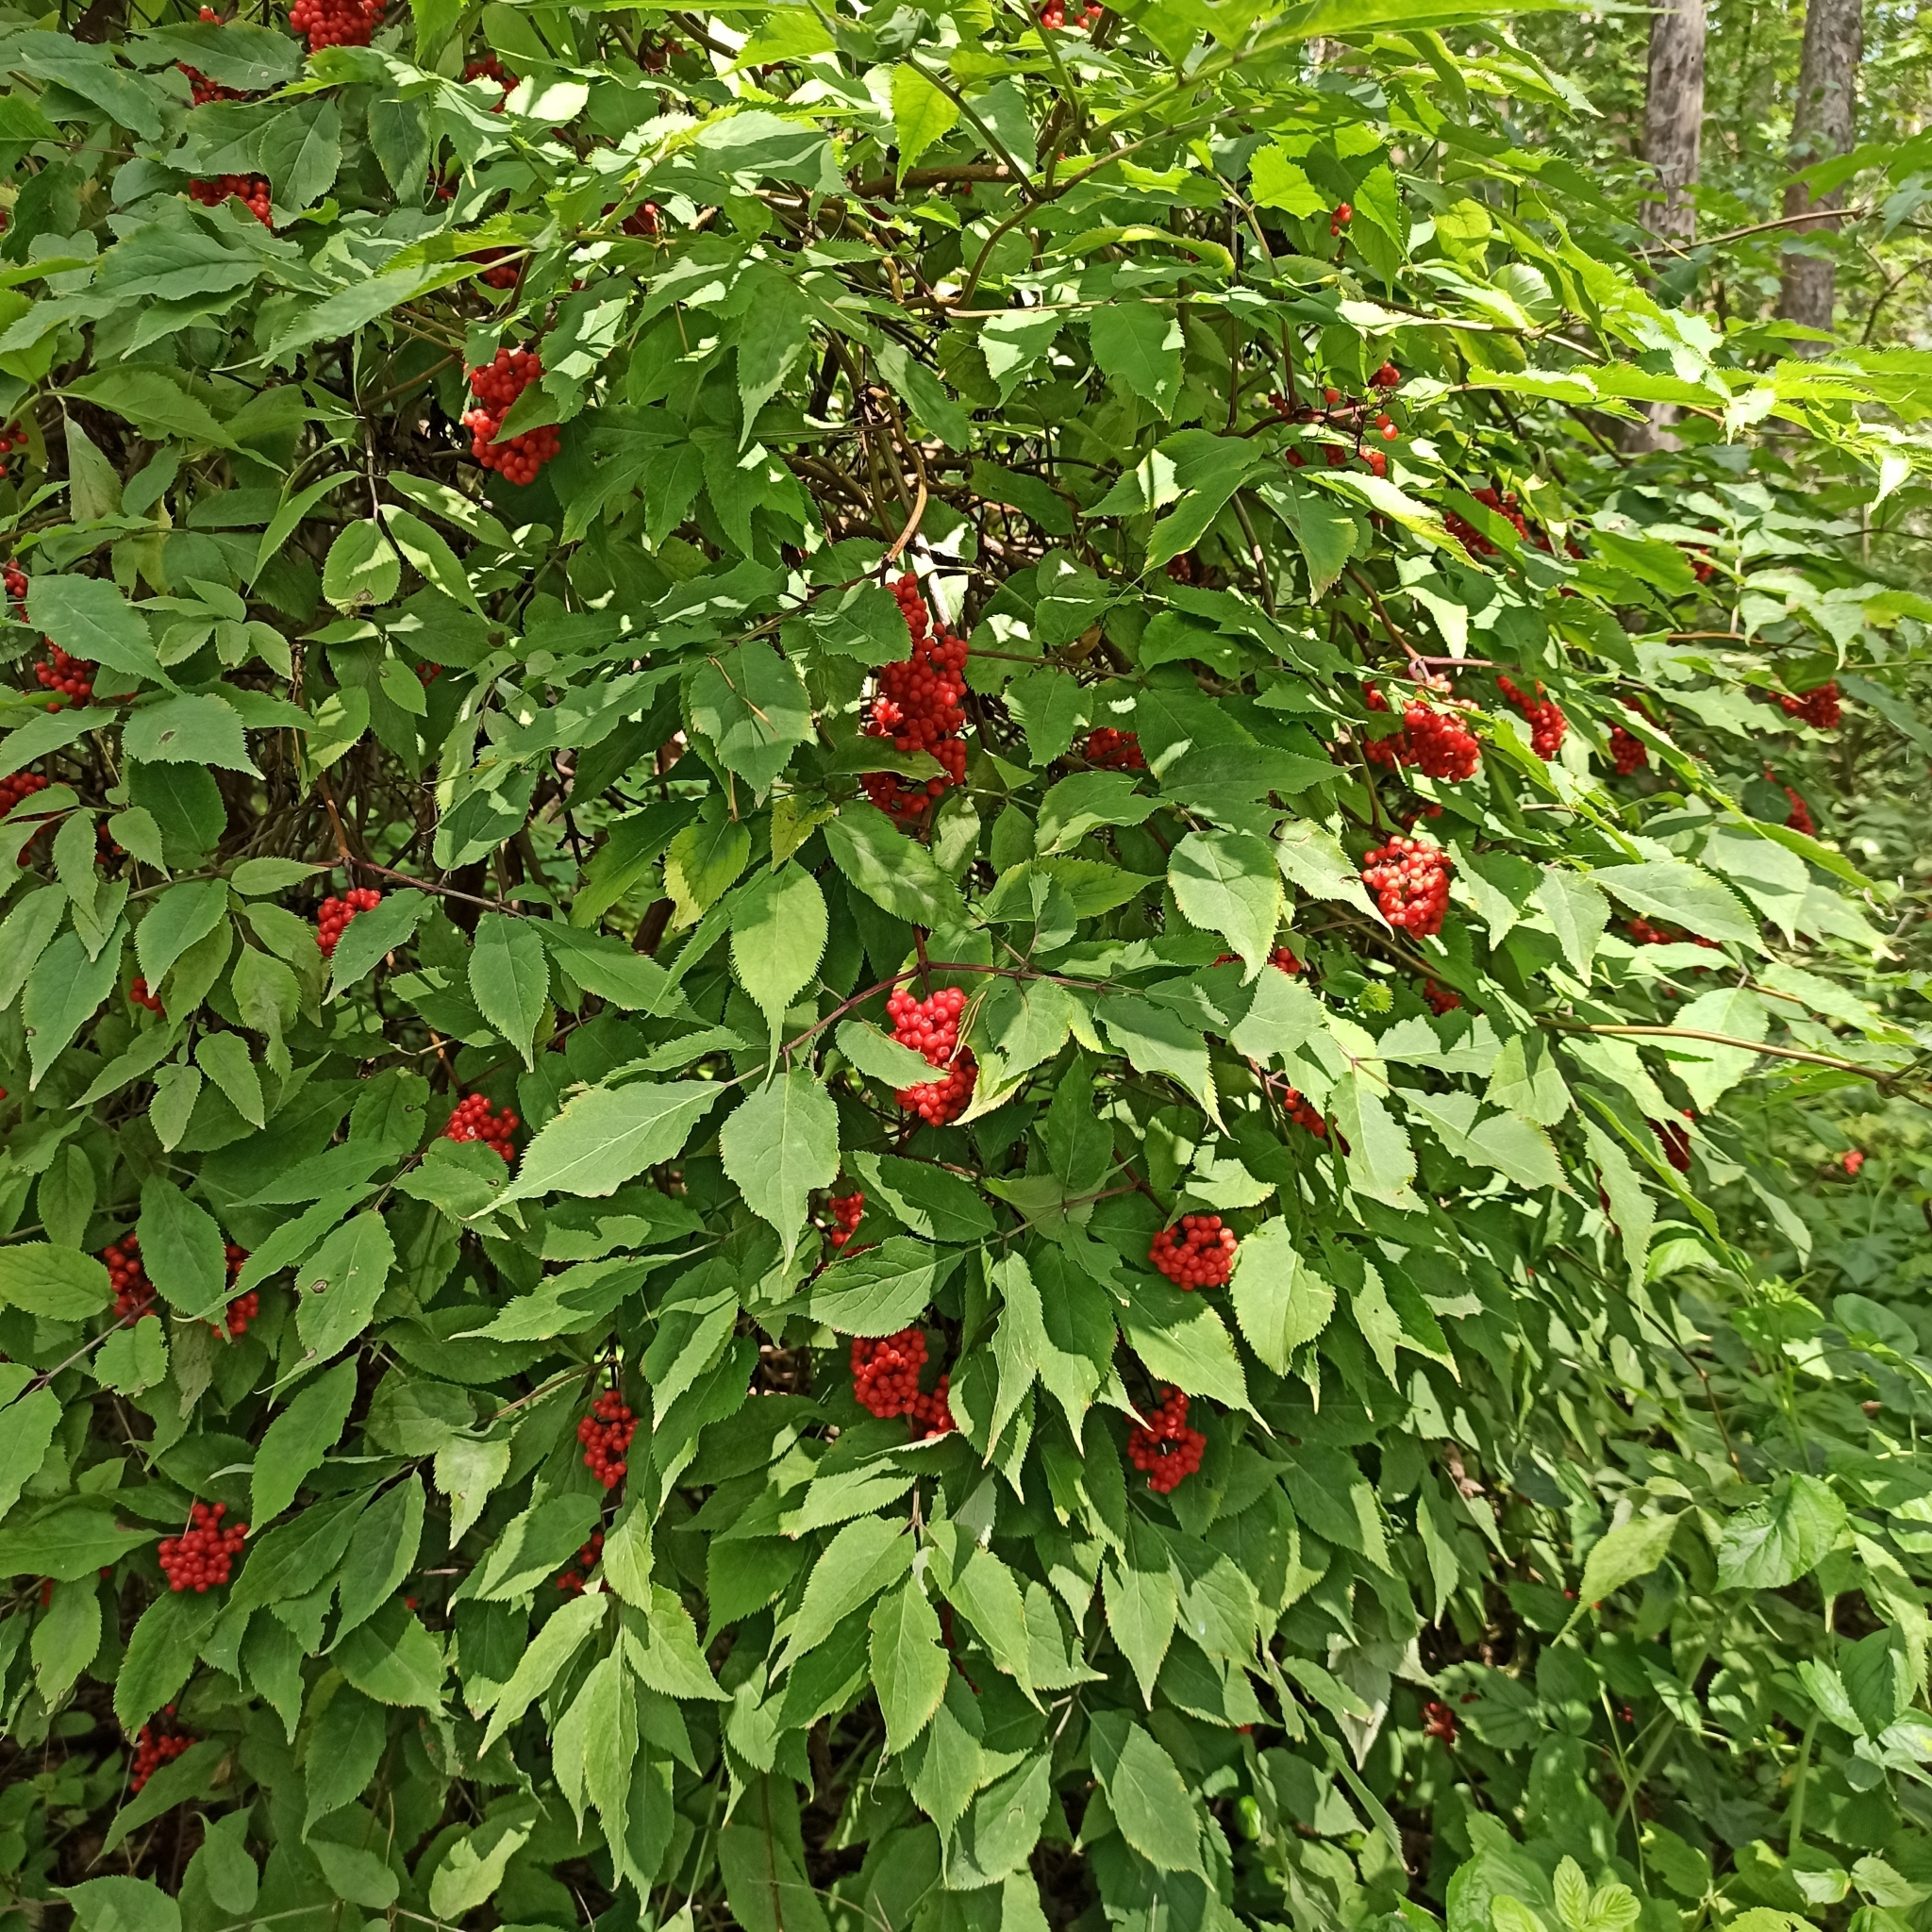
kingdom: Plantae
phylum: Tracheophyta
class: Magnoliopsida
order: Dipsacales
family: Viburnaceae
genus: Sambucus
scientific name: Sambucus racemosa
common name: Red-berried elder
